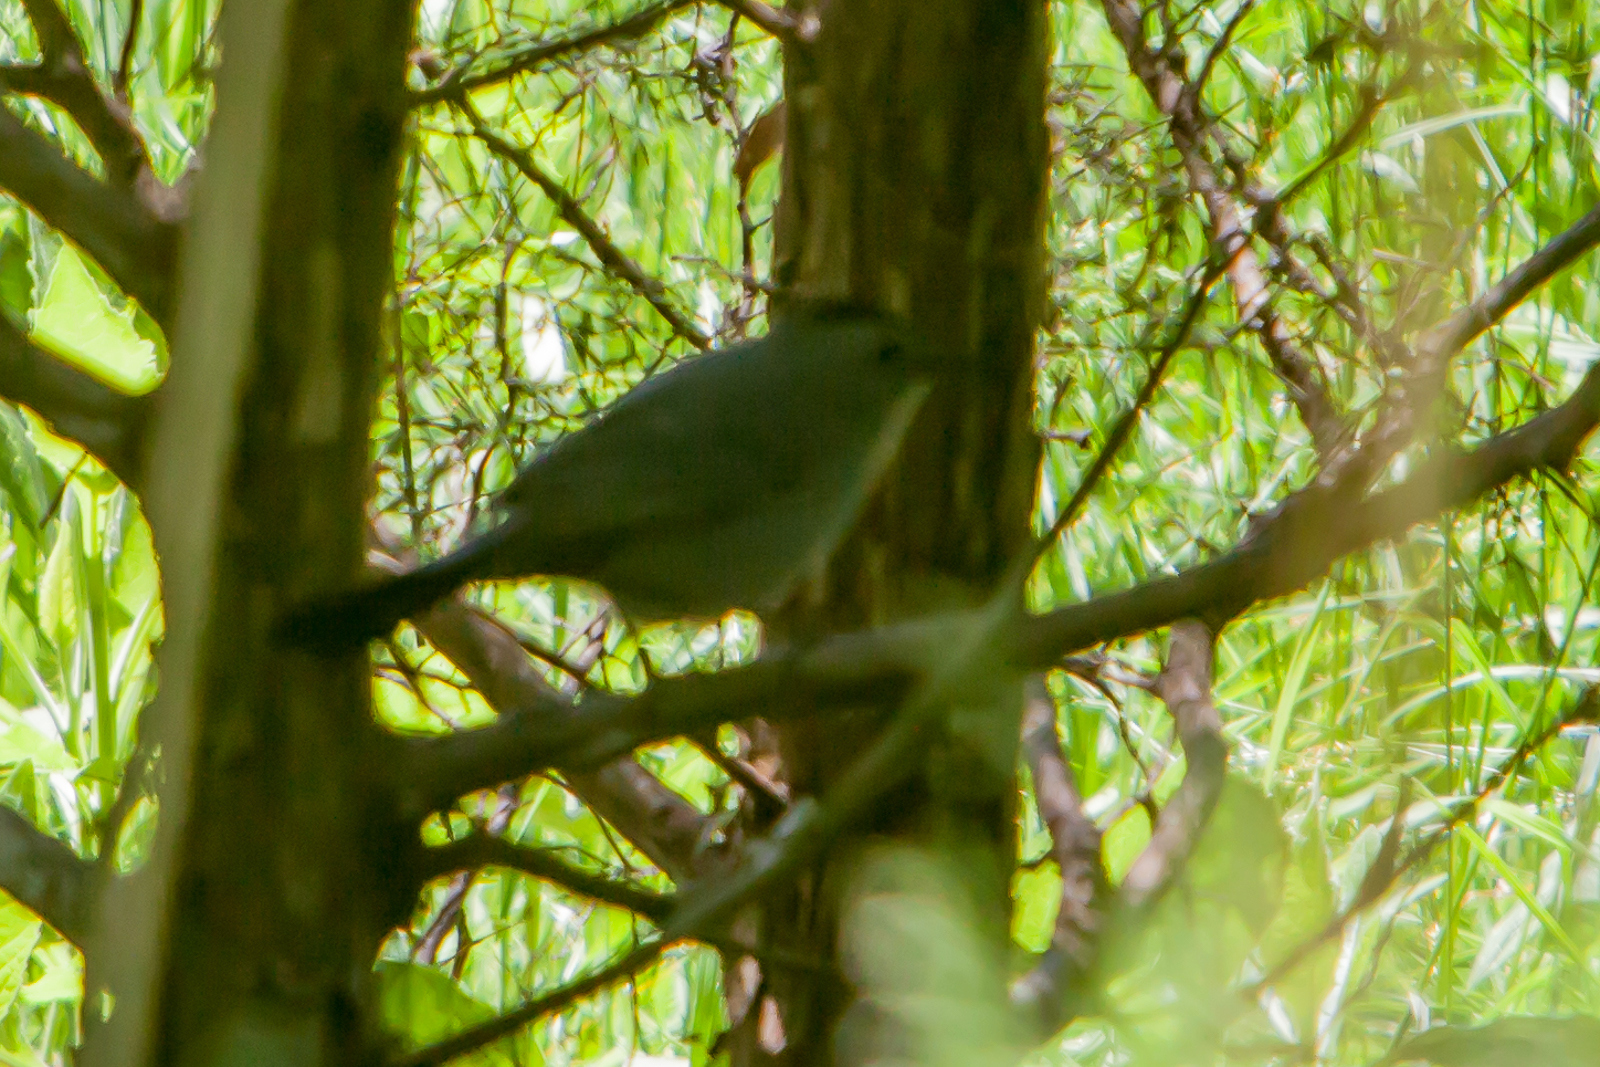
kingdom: Animalia
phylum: Chordata
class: Aves
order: Passeriformes
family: Mimidae
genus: Dumetella
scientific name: Dumetella carolinensis
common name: Gray catbird
